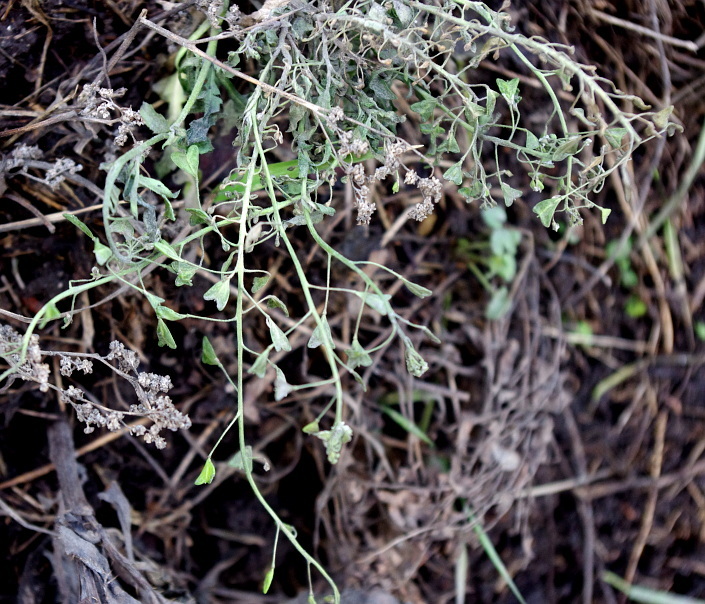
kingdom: Plantae
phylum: Tracheophyta
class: Magnoliopsida
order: Brassicales
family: Brassicaceae
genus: Capsella
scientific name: Capsella bursa-pastoris
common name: Shepherd's purse
